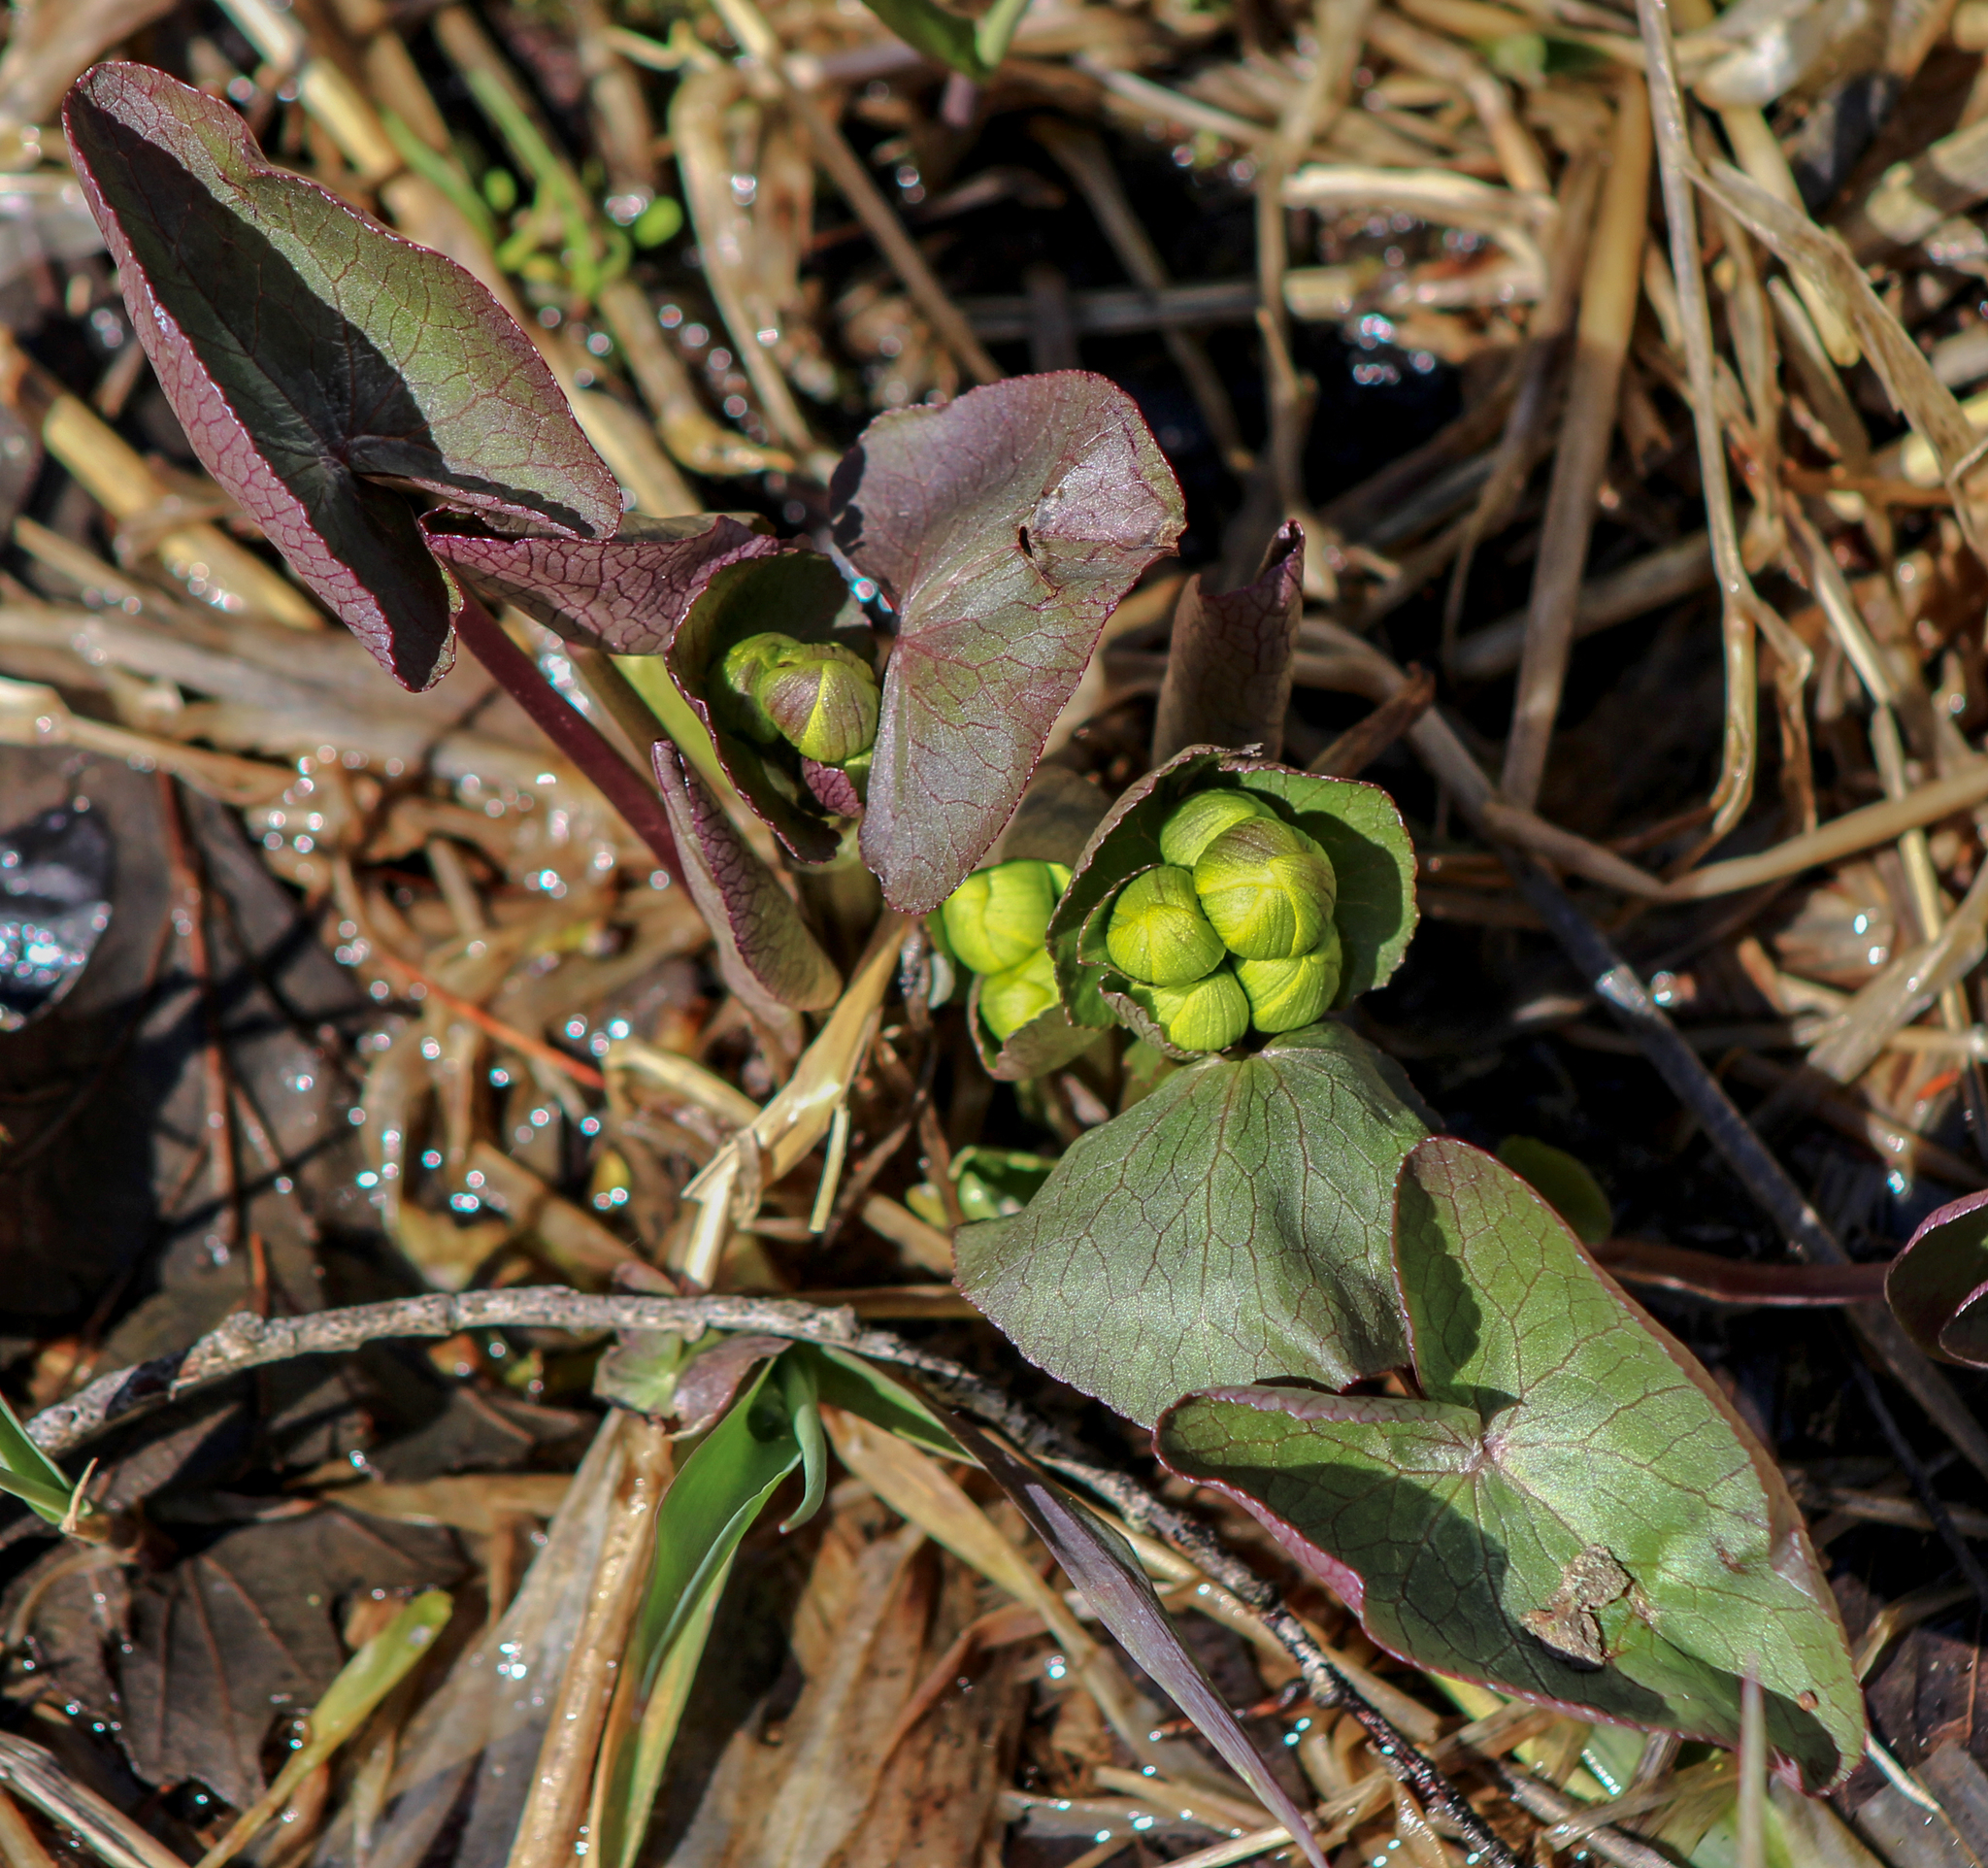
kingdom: Plantae
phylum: Tracheophyta
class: Magnoliopsida
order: Ranunculales
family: Ranunculaceae
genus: Caltha
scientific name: Caltha palustris
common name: Marsh marigold
